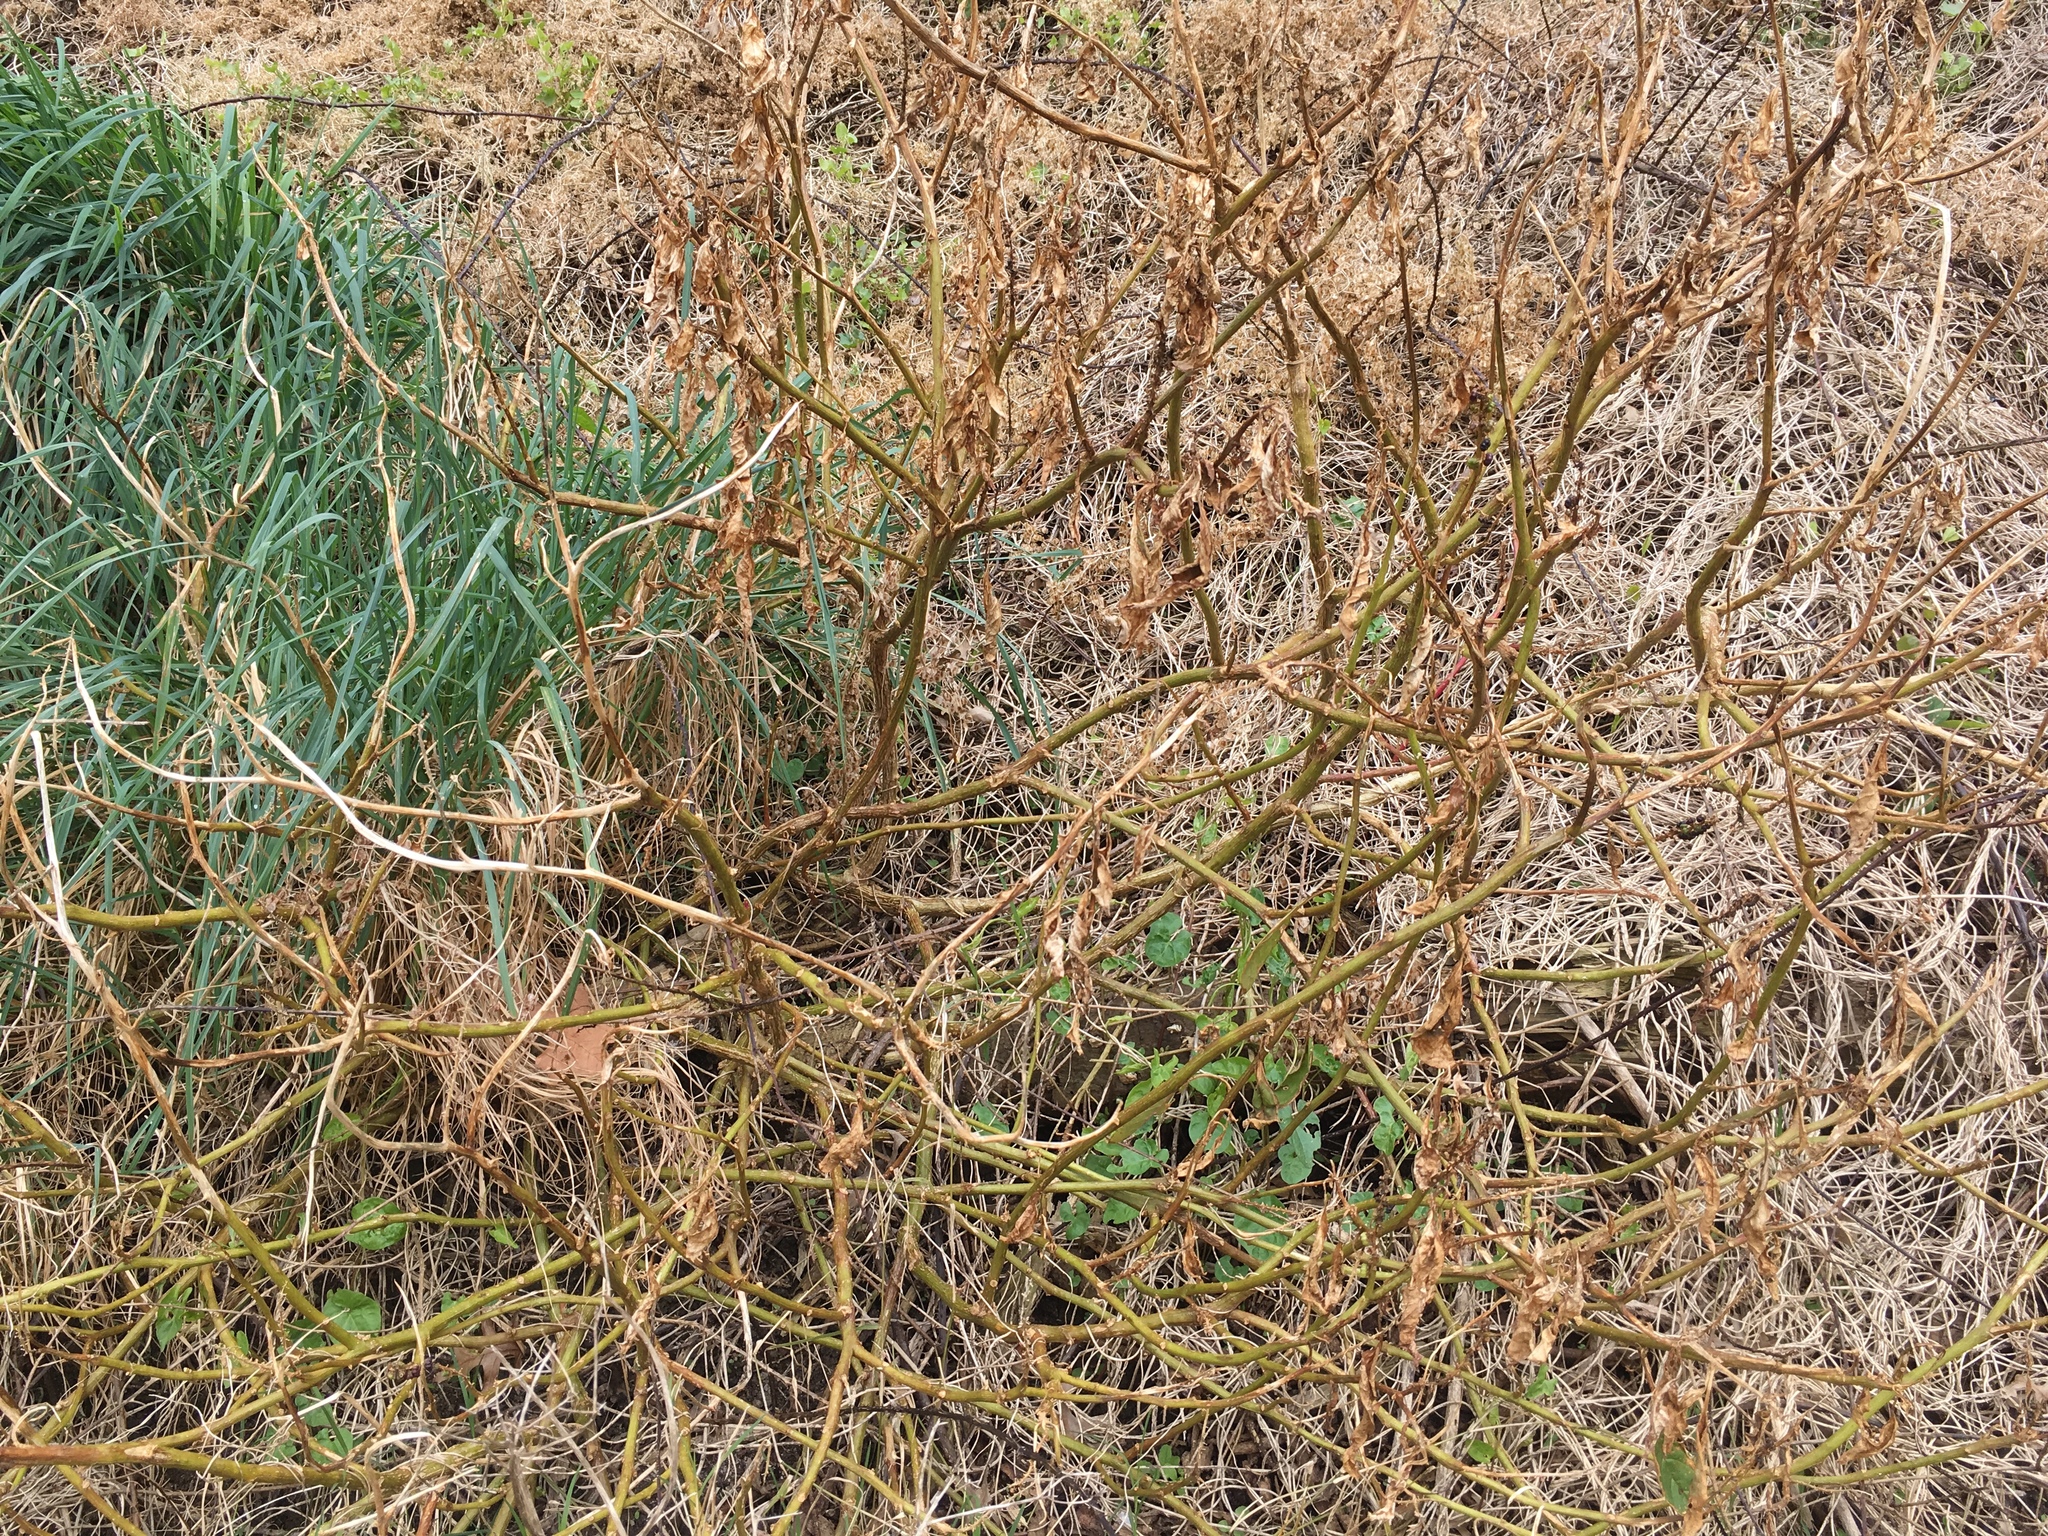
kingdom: Plantae
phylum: Tracheophyta
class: Magnoliopsida
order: Caryophyllales
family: Phytolaccaceae
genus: Phytolacca
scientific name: Phytolacca icosandra
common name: Button pokeweed
